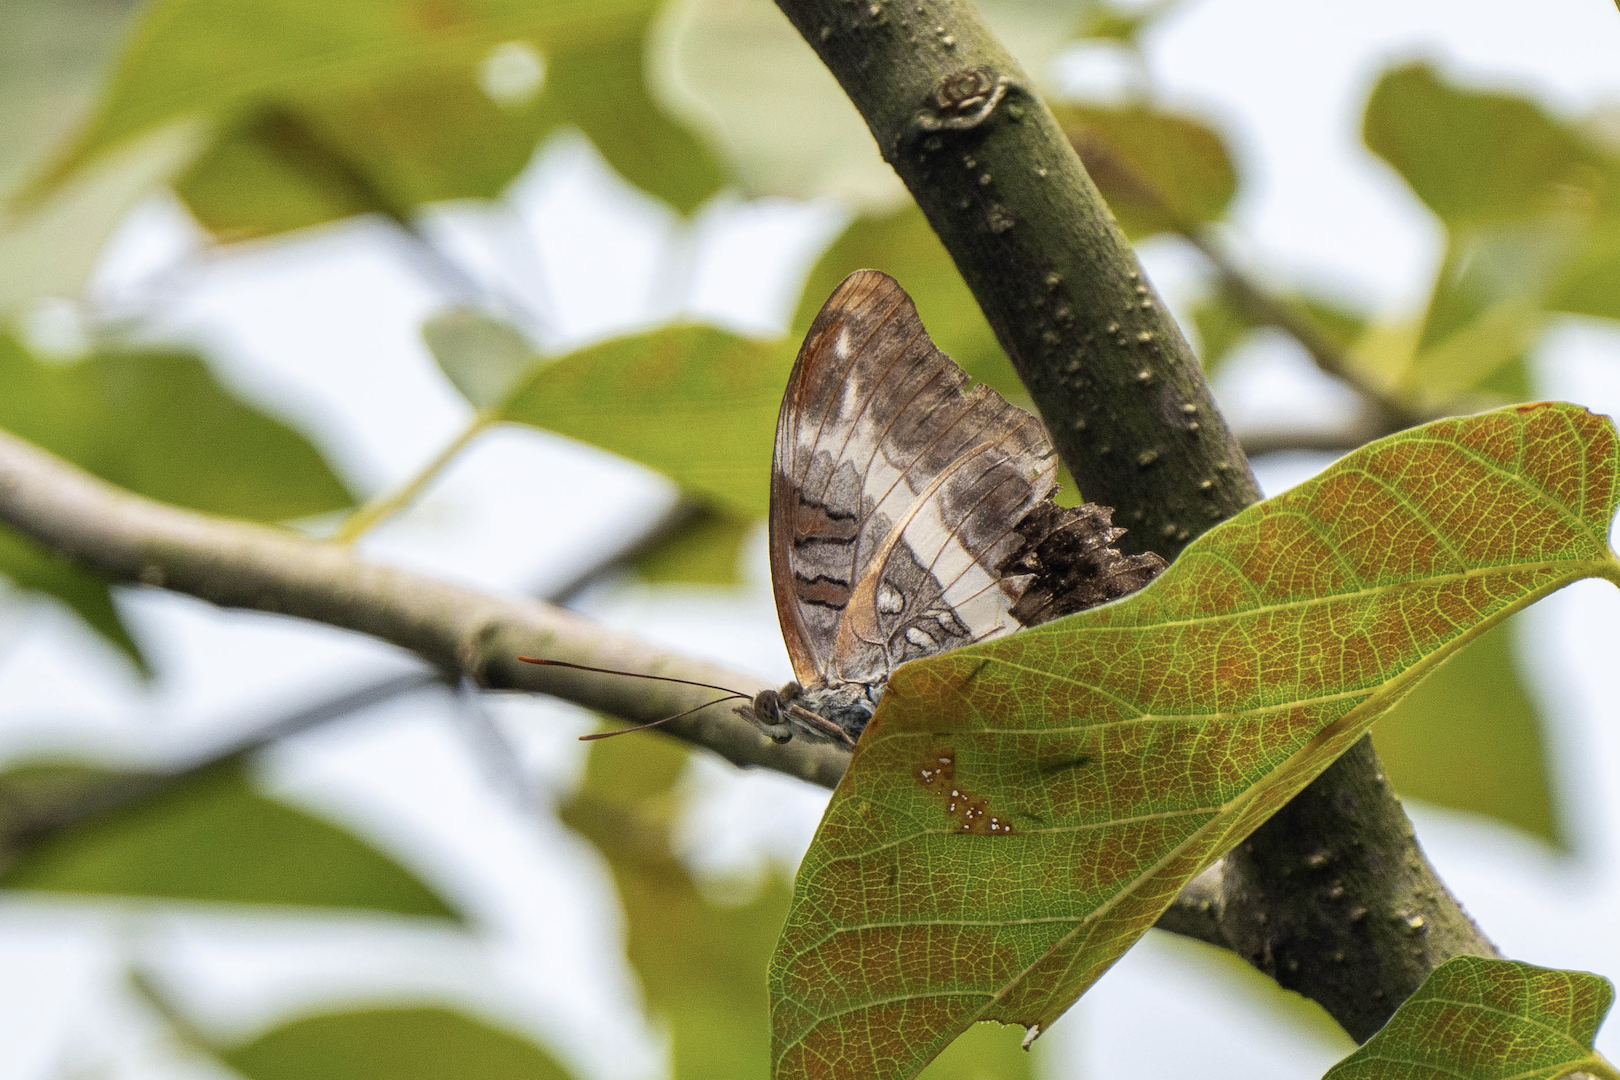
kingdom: Animalia
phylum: Arthropoda
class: Insecta
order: Lepidoptera
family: Nymphalidae
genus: Limenitis
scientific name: Limenitis Parasarpa dudu
